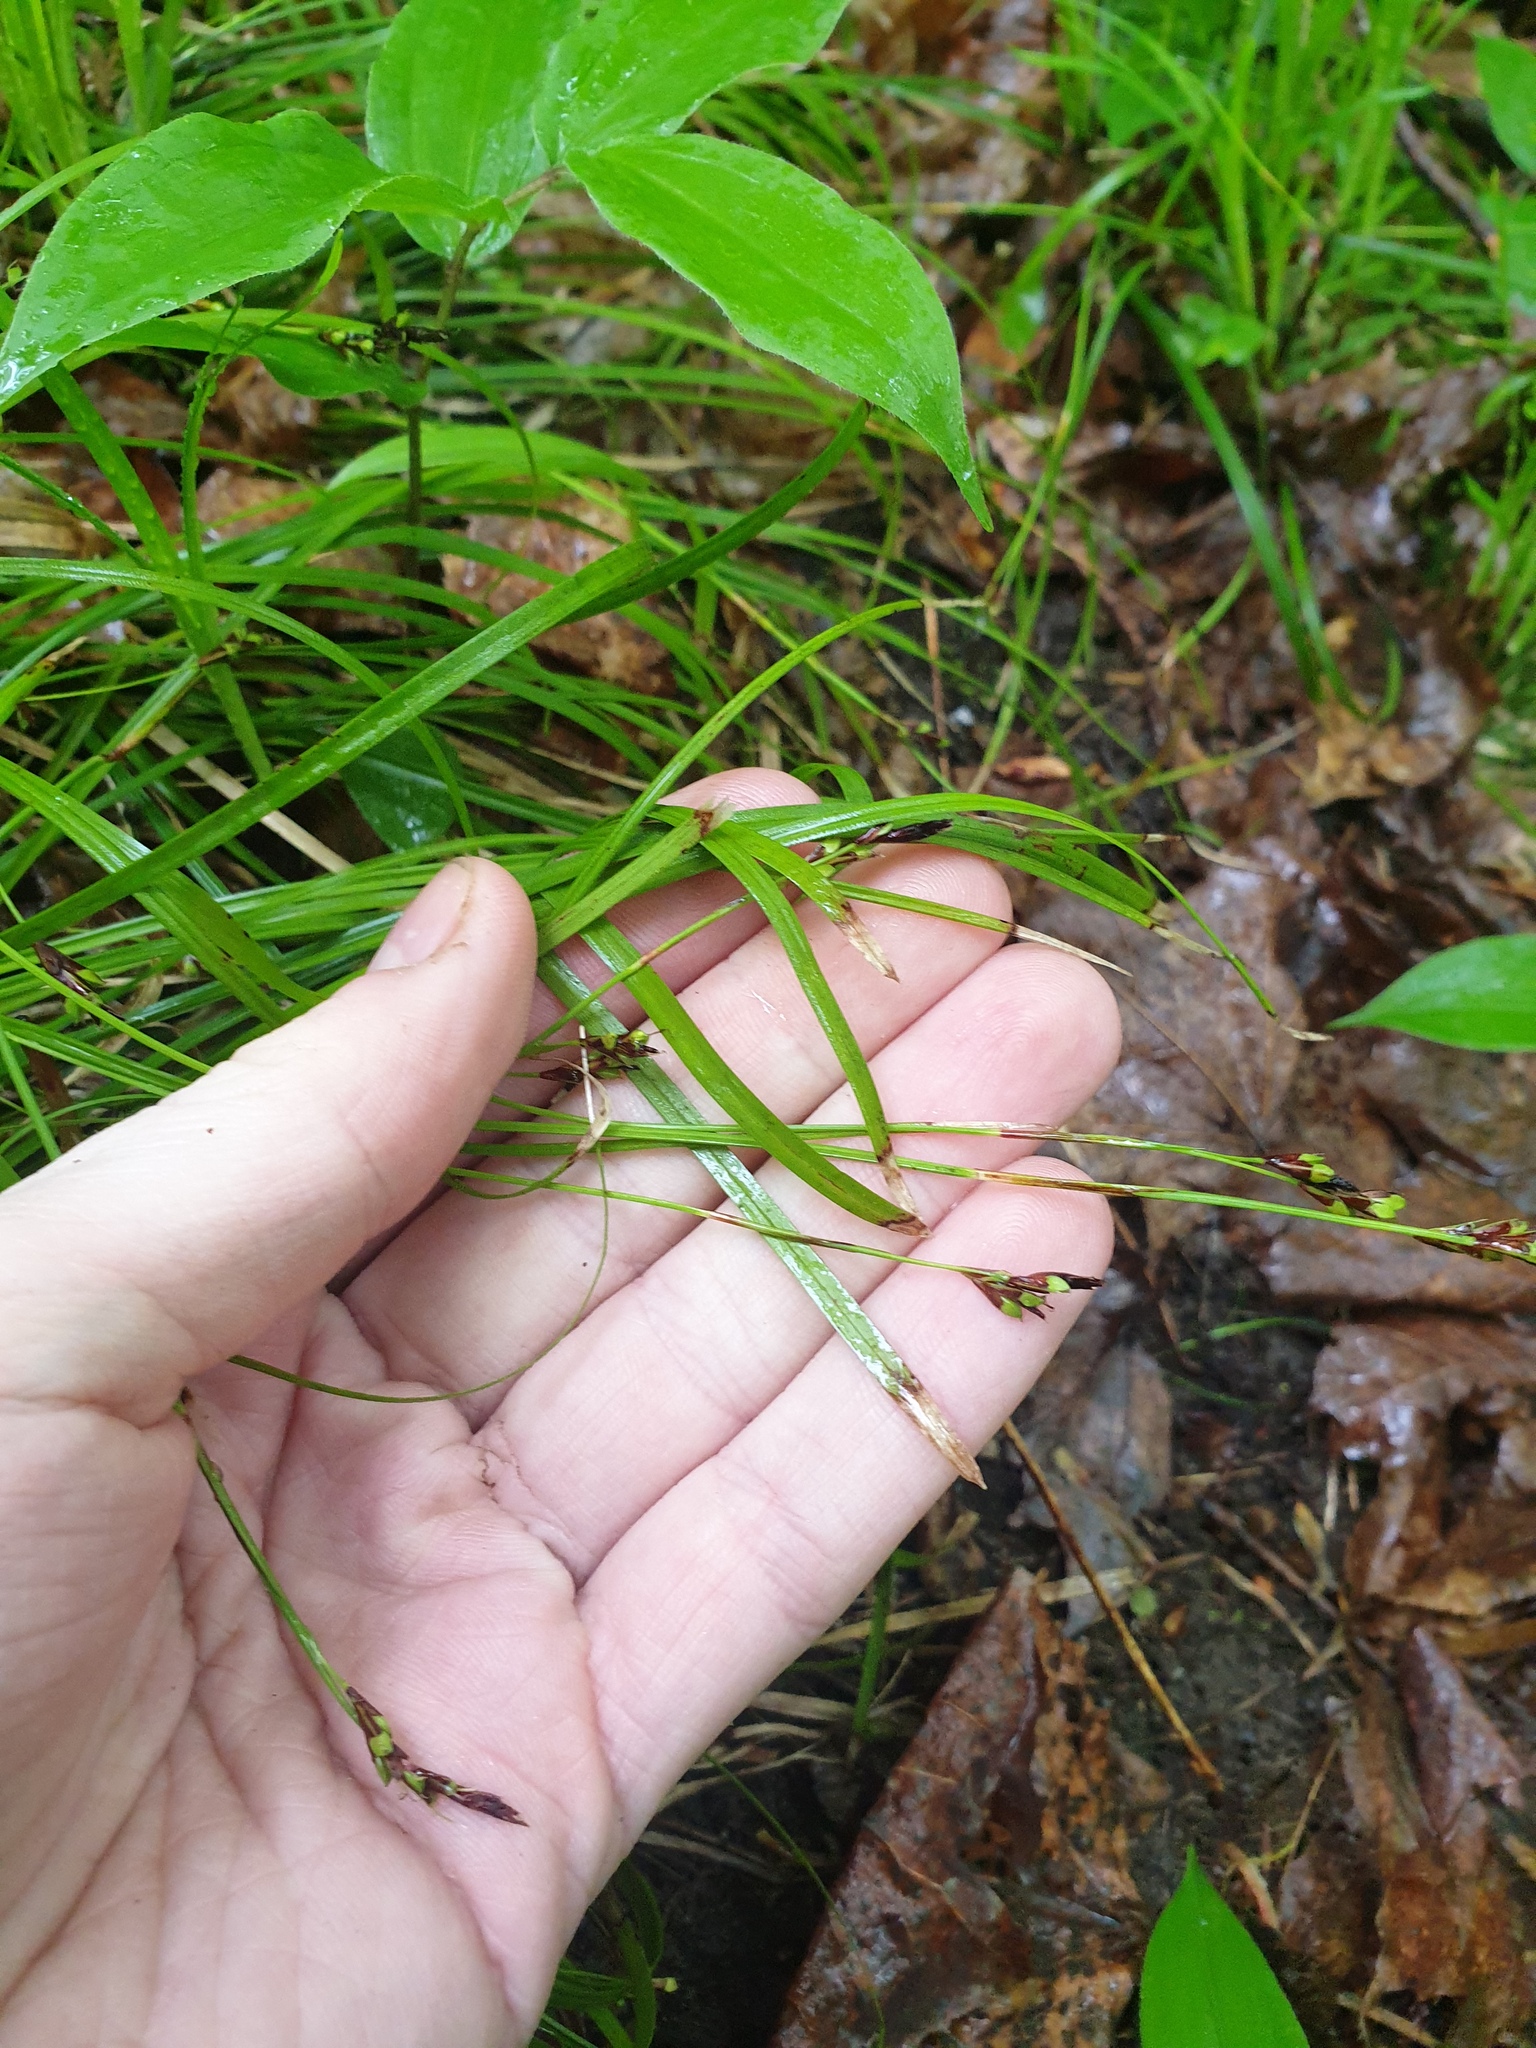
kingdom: Plantae
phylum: Tracheophyta
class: Liliopsida
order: Poales
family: Cyperaceae
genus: Carex
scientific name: Carex pedunculata
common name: Pedunculate sedge
